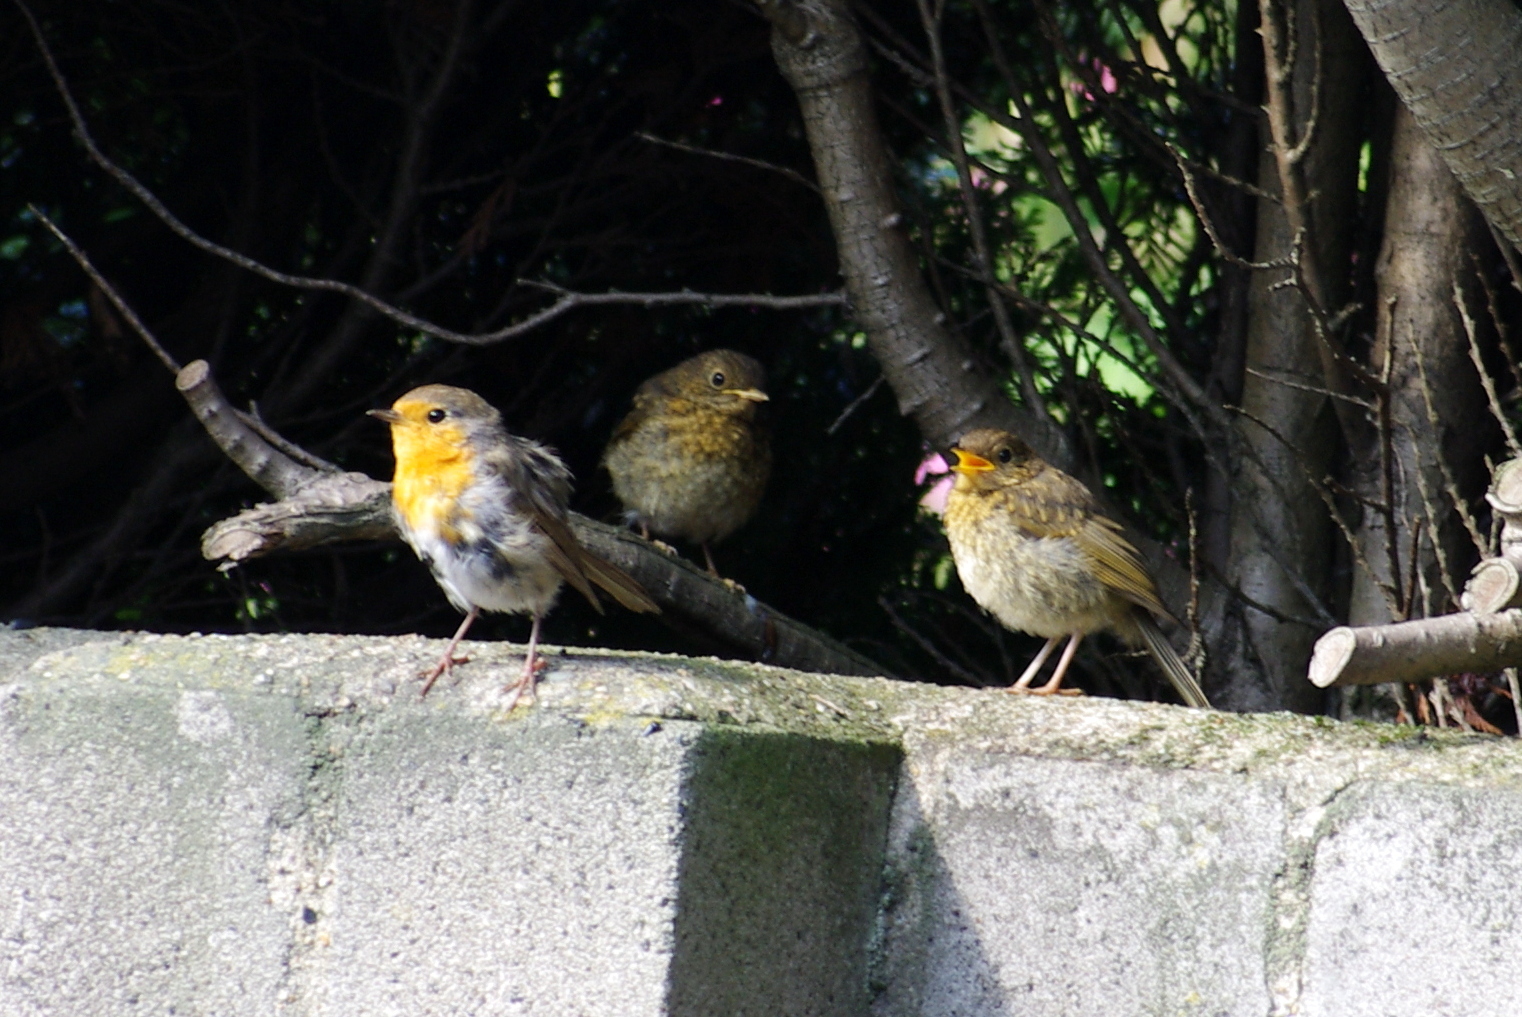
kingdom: Animalia
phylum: Chordata
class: Aves
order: Passeriformes
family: Muscicapidae
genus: Erithacus
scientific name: Erithacus rubecula
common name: European robin
